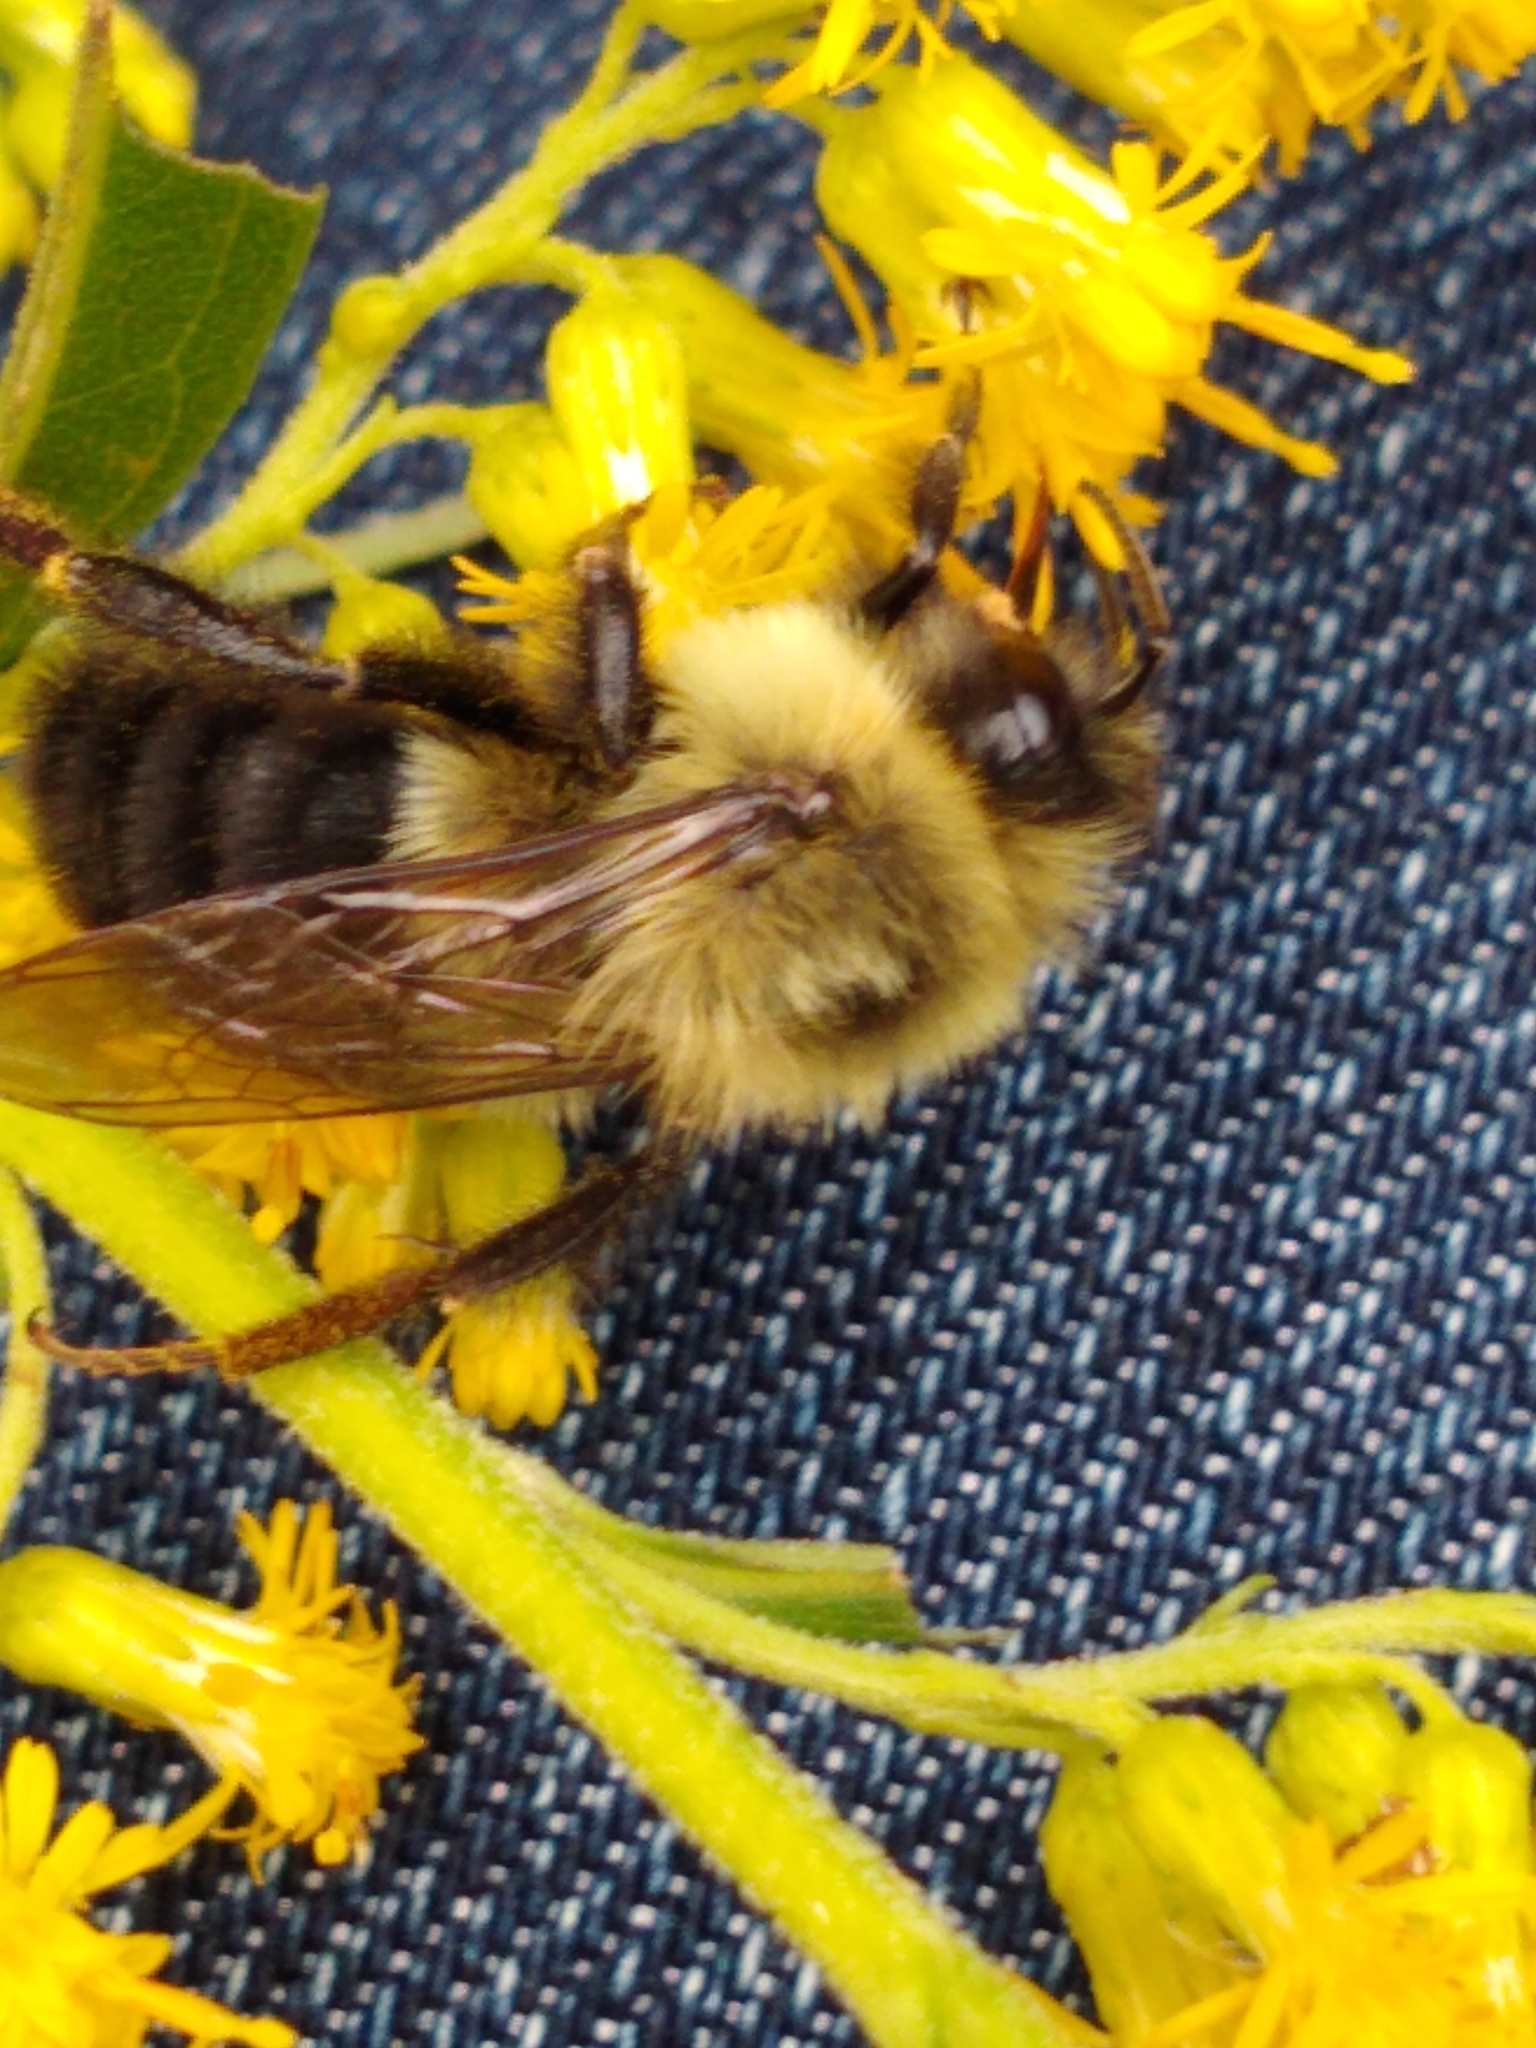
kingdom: Animalia
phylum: Arthropoda
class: Insecta
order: Hymenoptera
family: Apidae
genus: Bombus
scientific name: Bombus impatiens
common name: Common eastern bumble bee
